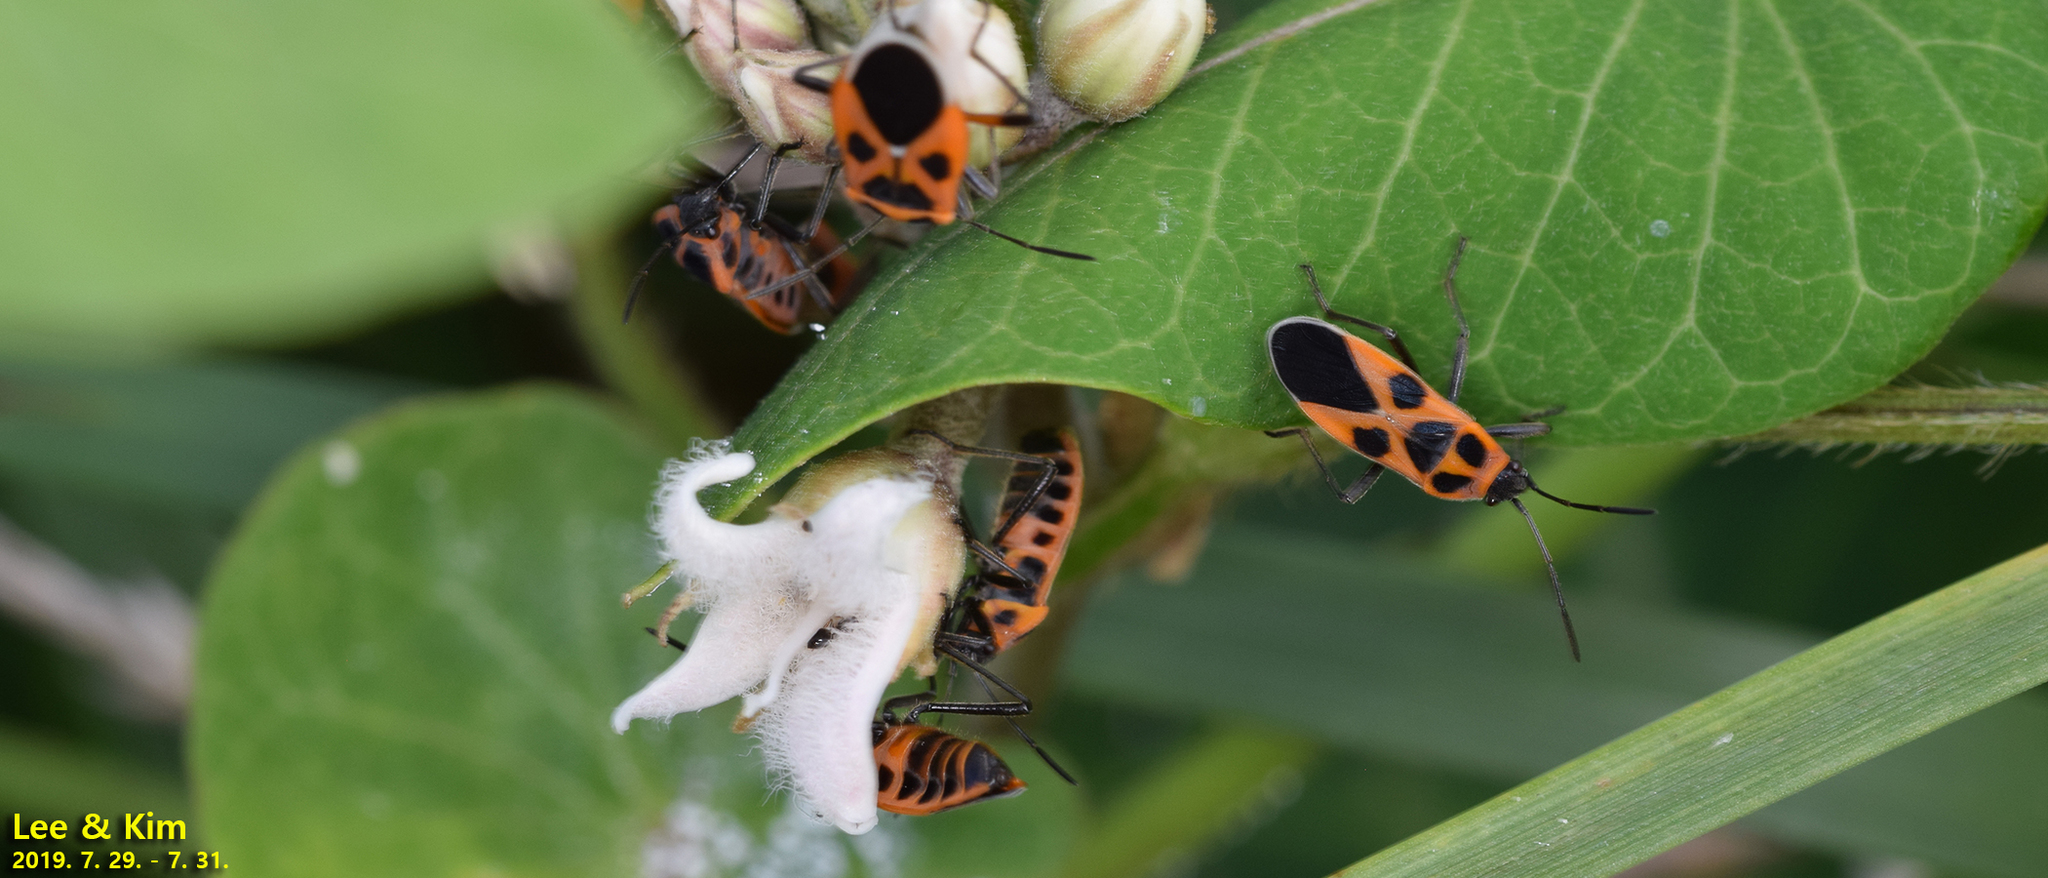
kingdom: Animalia
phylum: Arthropoda
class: Insecta
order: Hemiptera
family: Lygaeidae
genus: Tropidothorax
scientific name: Tropidothorax
